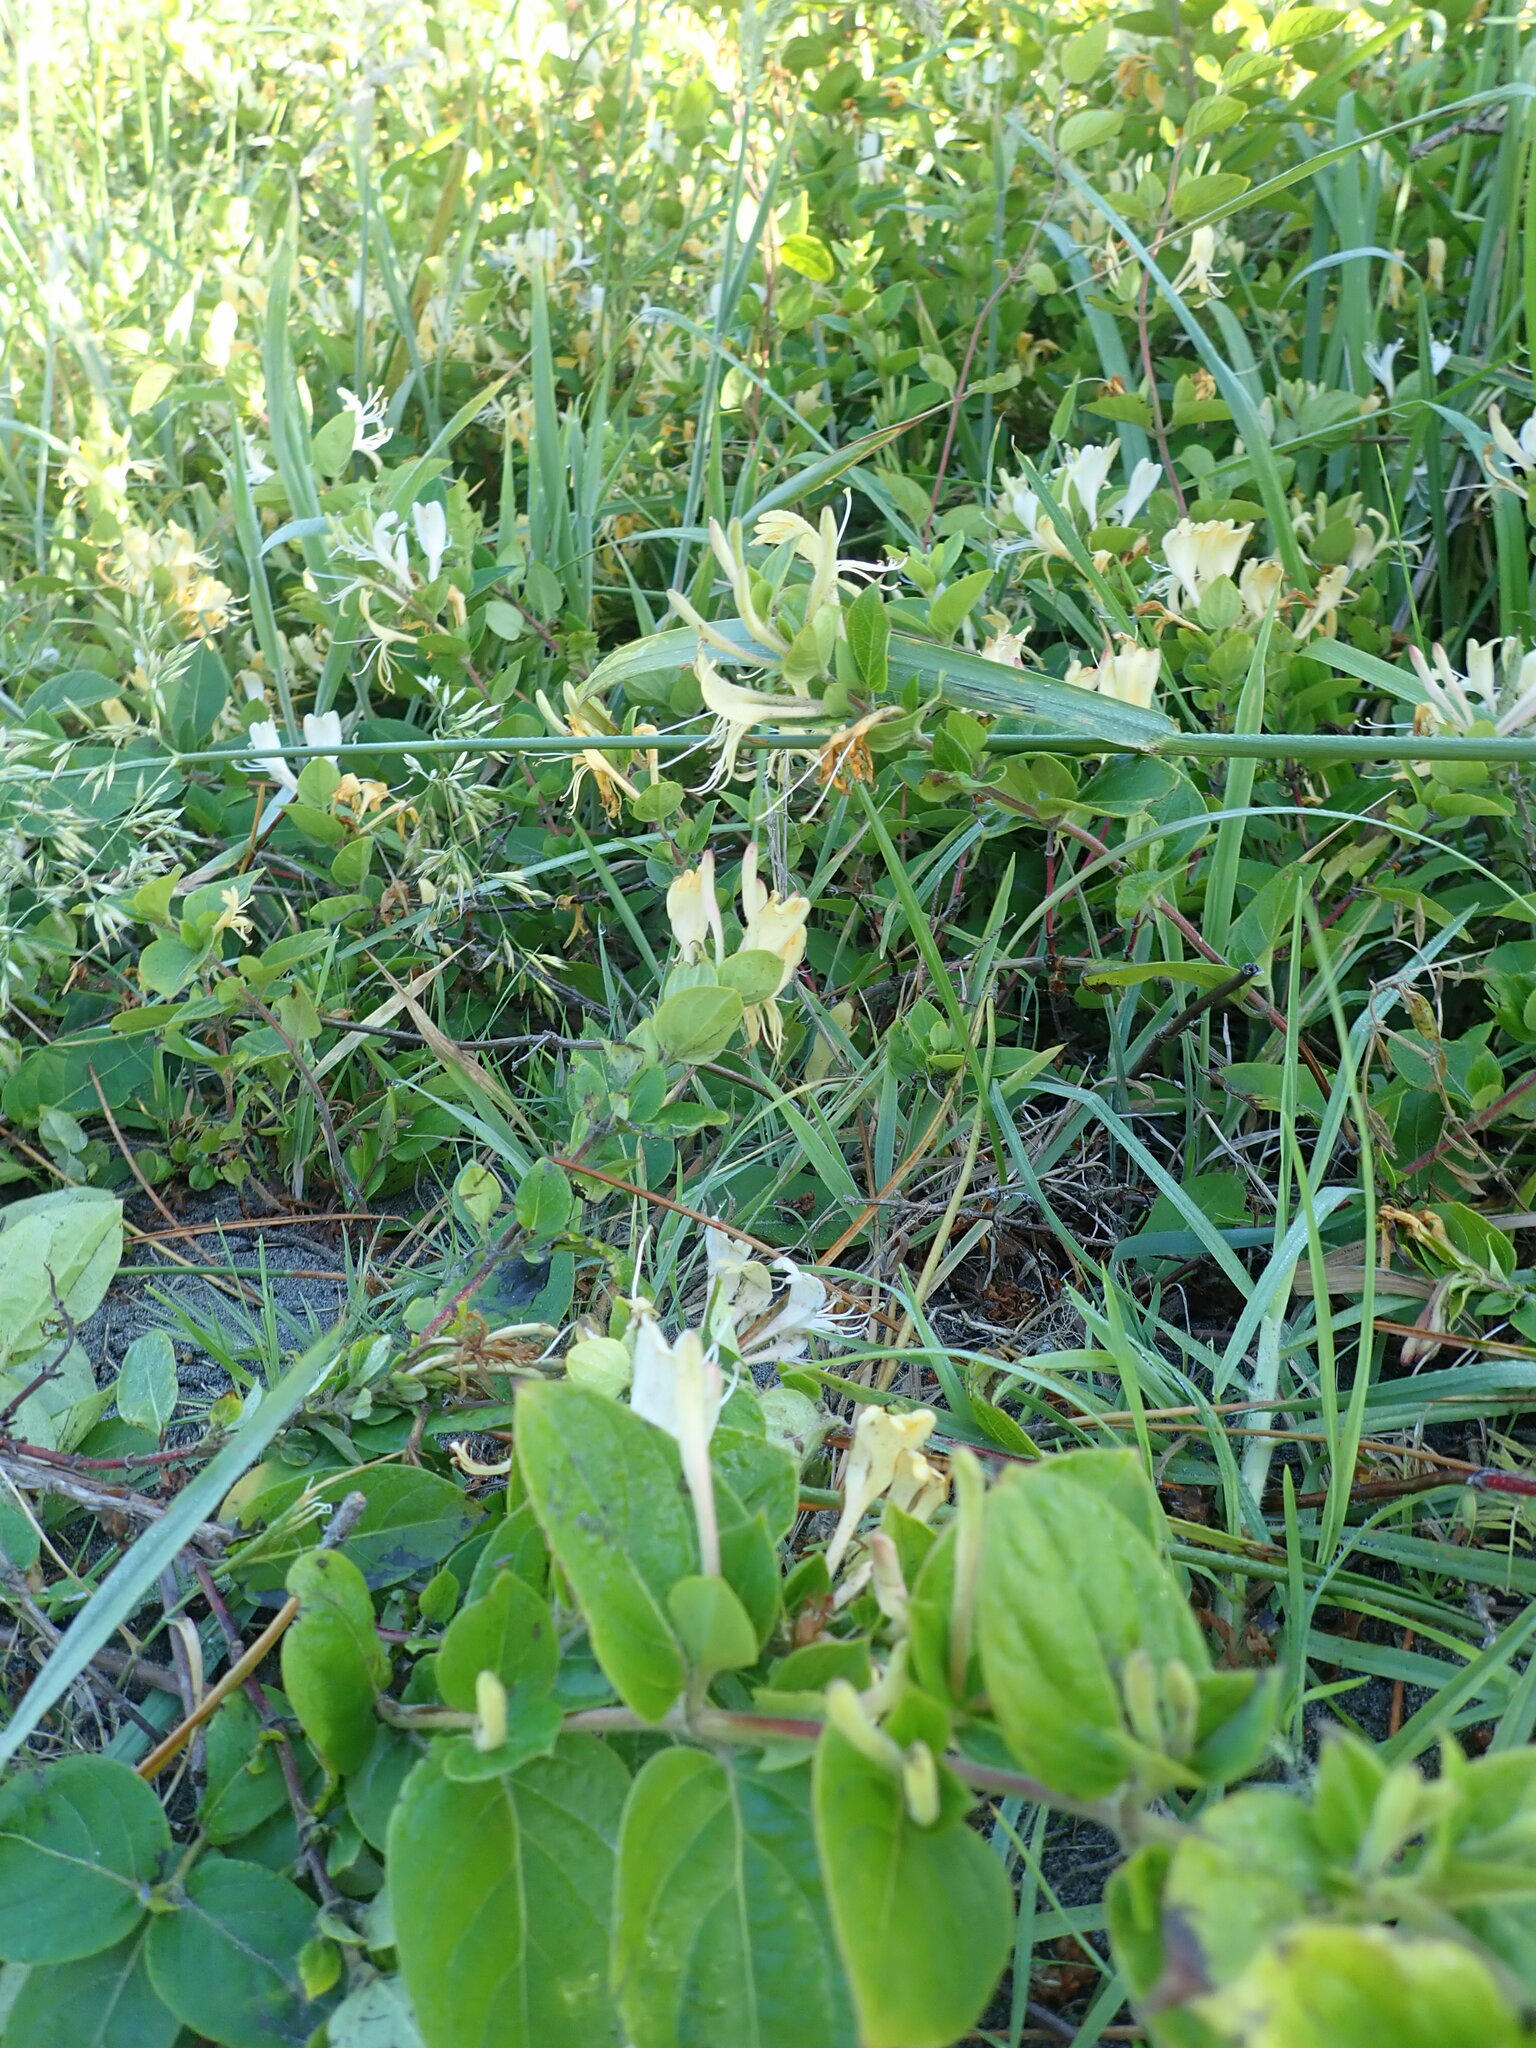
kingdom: Plantae
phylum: Tracheophyta
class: Magnoliopsida
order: Dipsacales
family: Caprifoliaceae
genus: Lonicera
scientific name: Lonicera japonica
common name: Japanese honeysuckle
